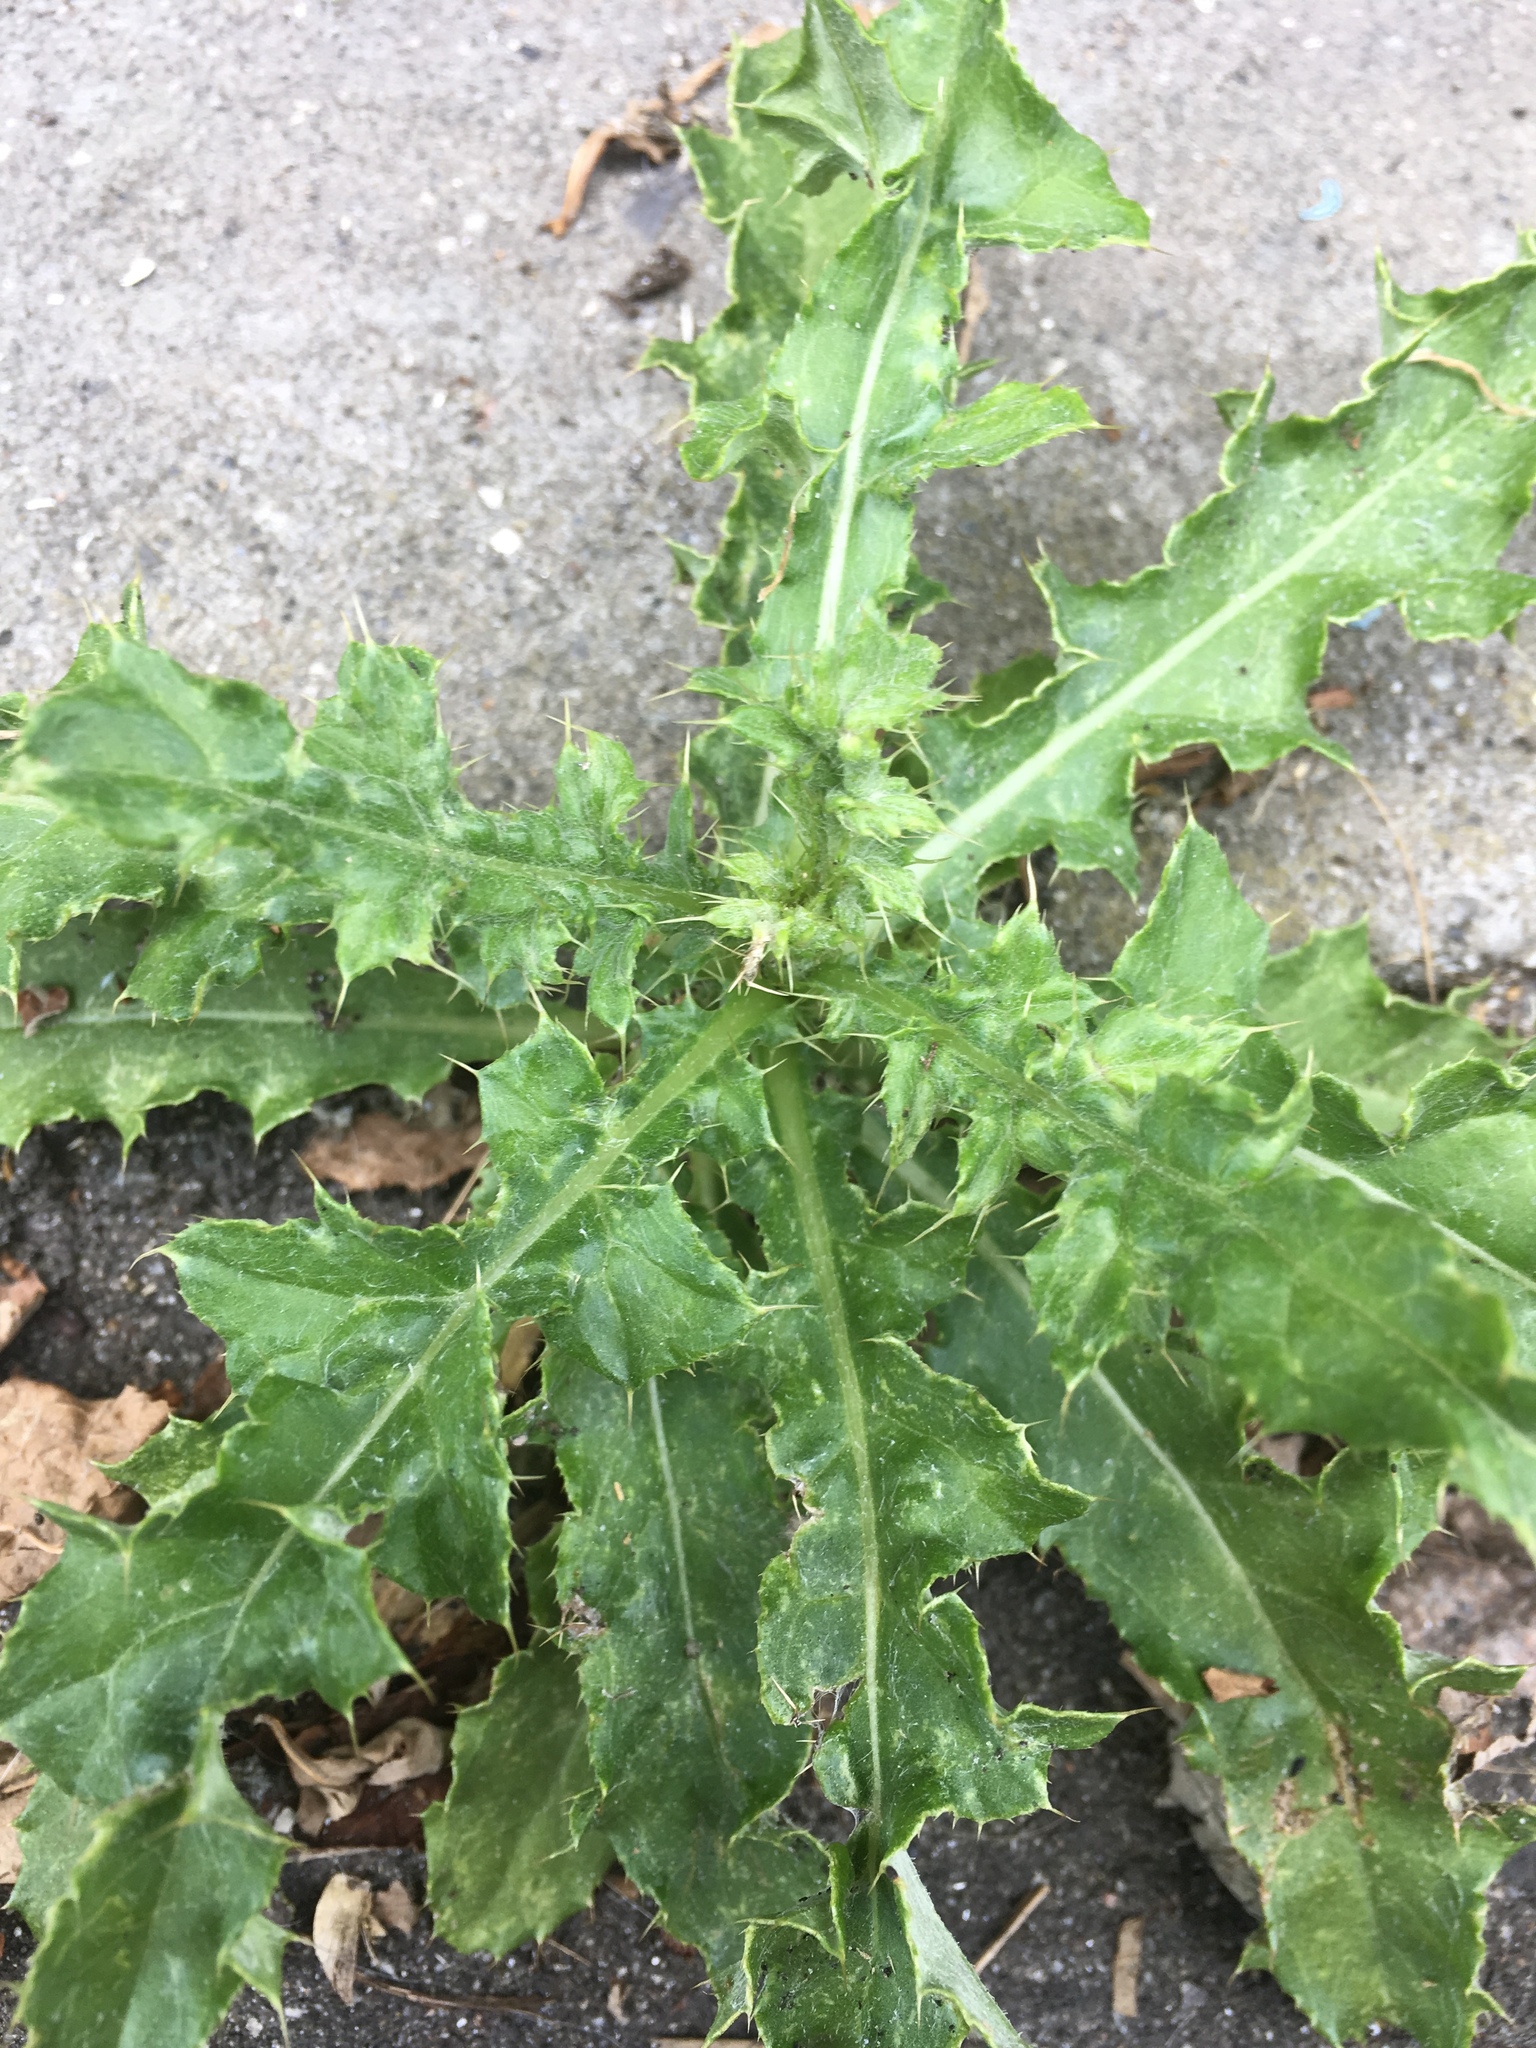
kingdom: Plantae
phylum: Tracheophyta
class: Magnoliopsida
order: Asterales
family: Asteraceae
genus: Cirsium
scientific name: Cirsium arvense
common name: Creeping thistle
